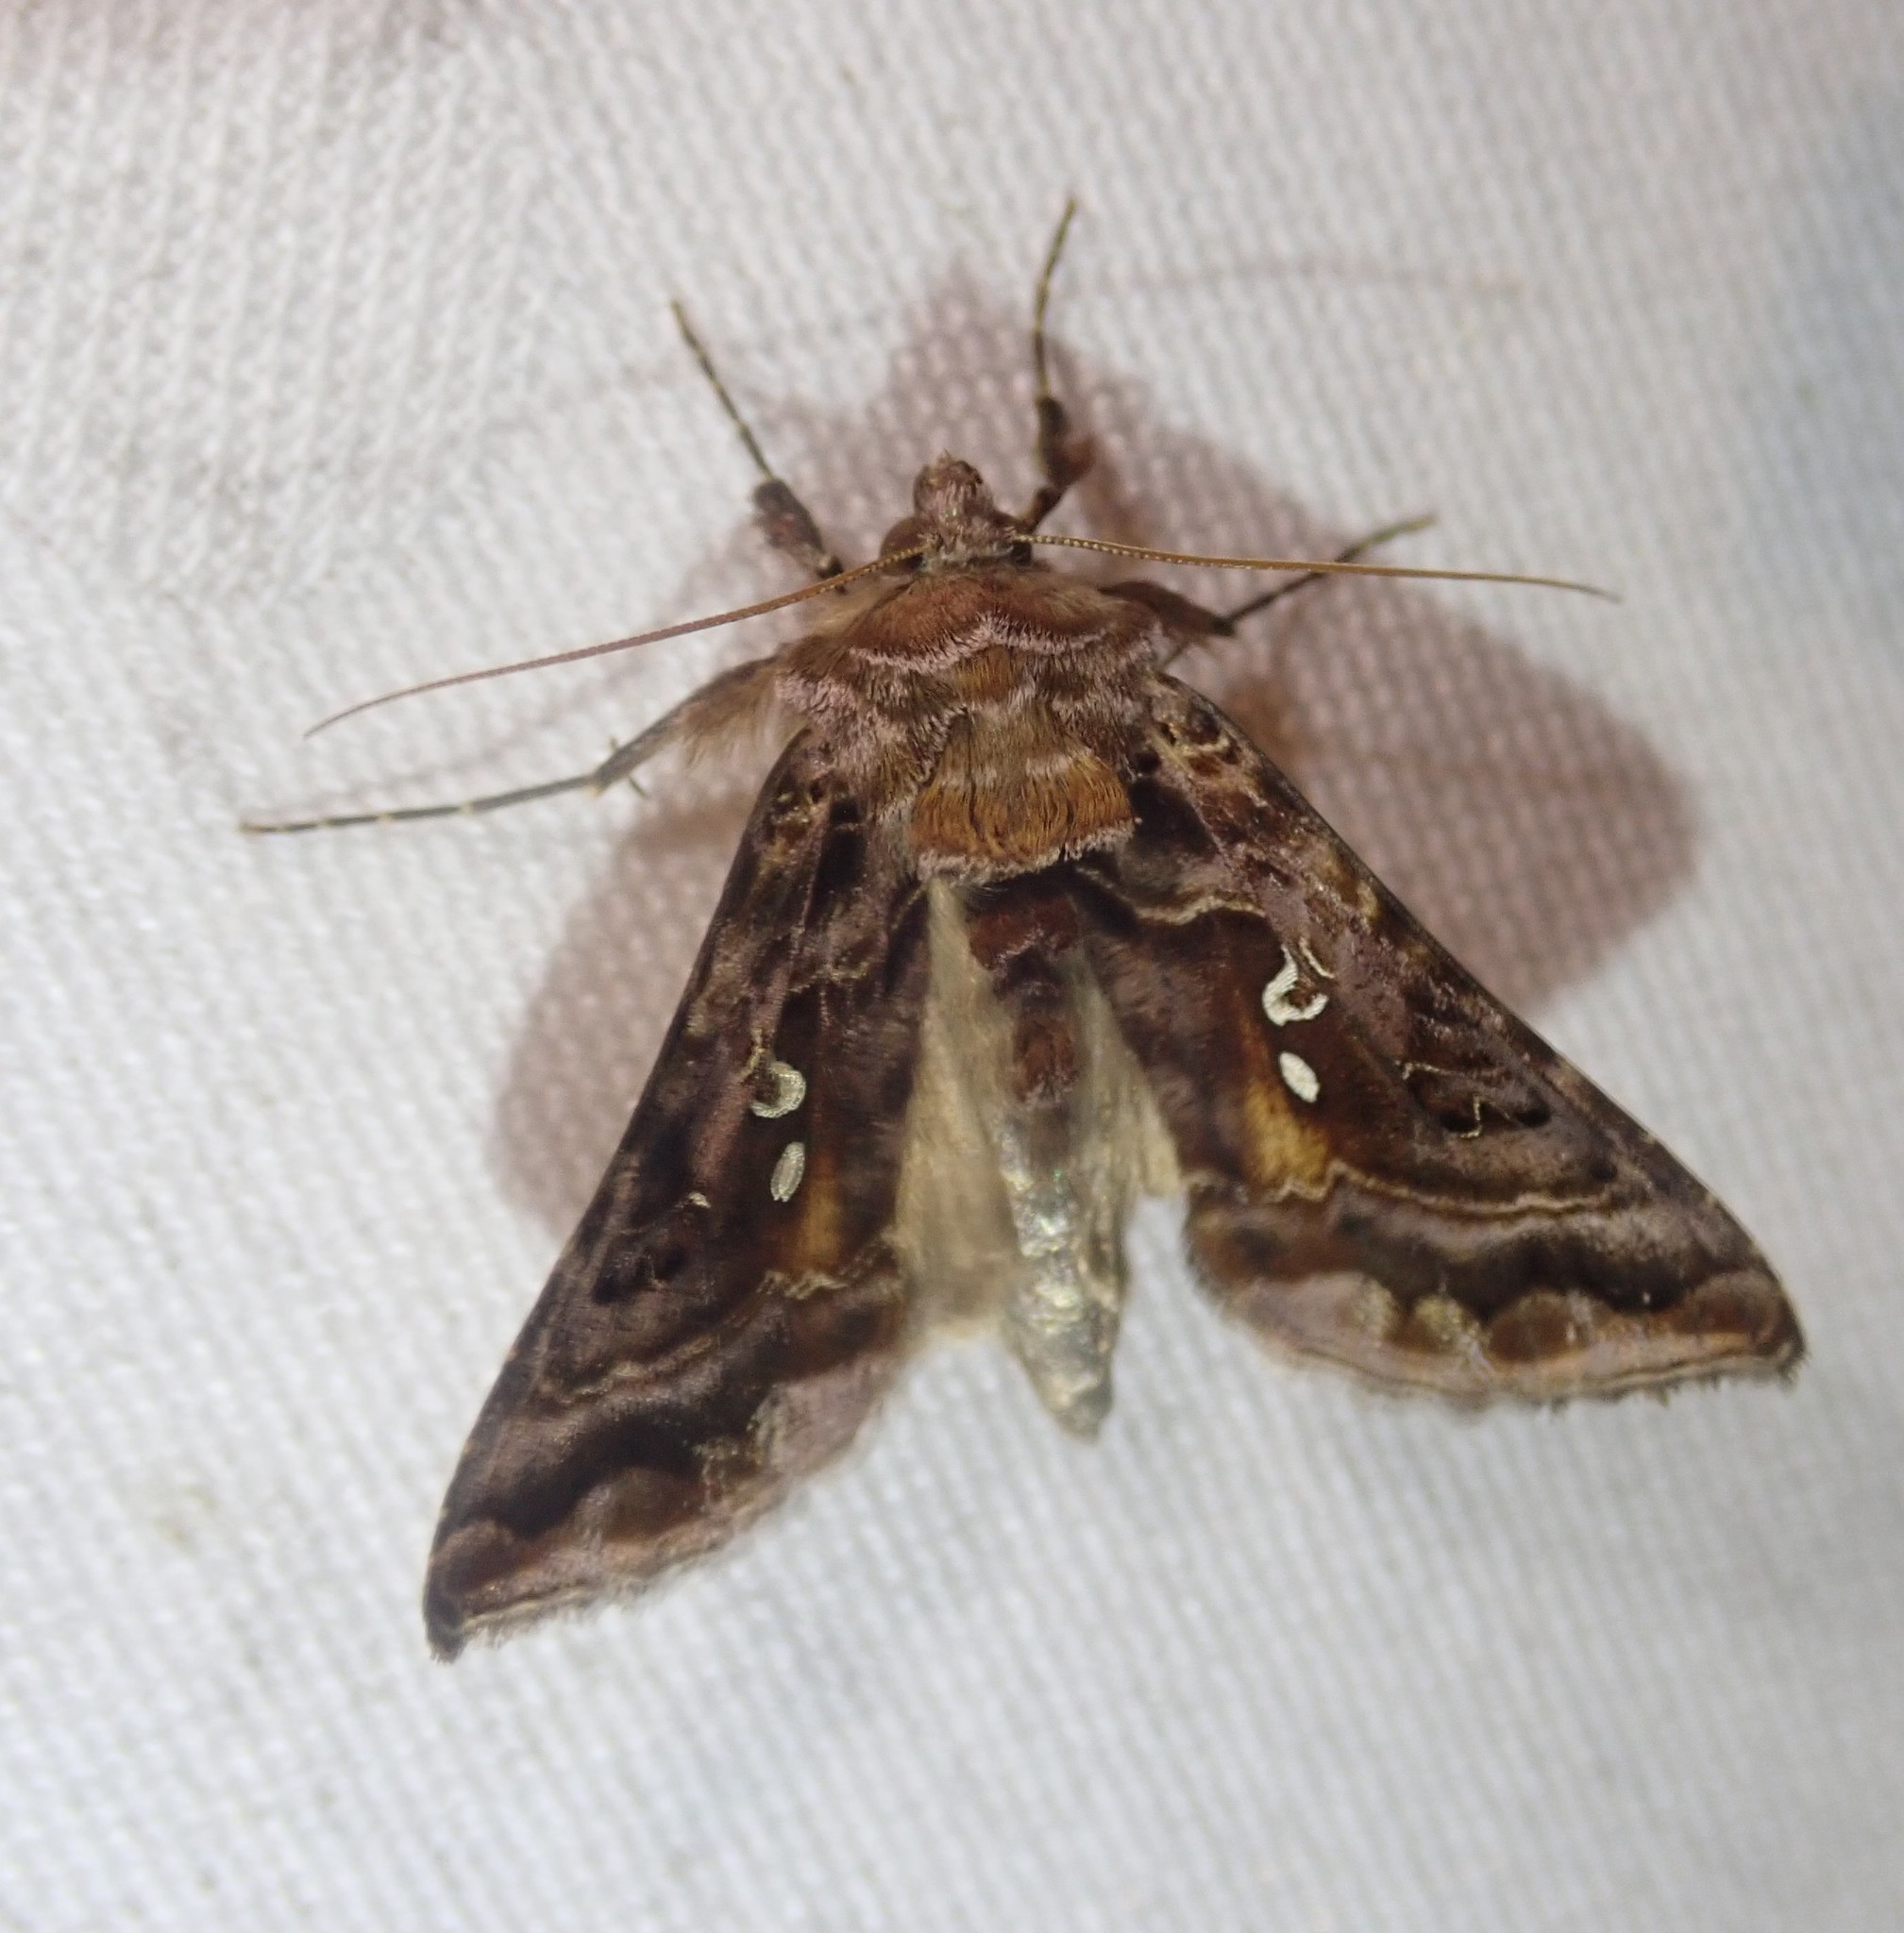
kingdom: Animalia
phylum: Arthropoda
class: Insecta
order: Lepidoptera
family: Noctuidae
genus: Autographa
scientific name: Autographa pulchrina
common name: Beautiful golden y
